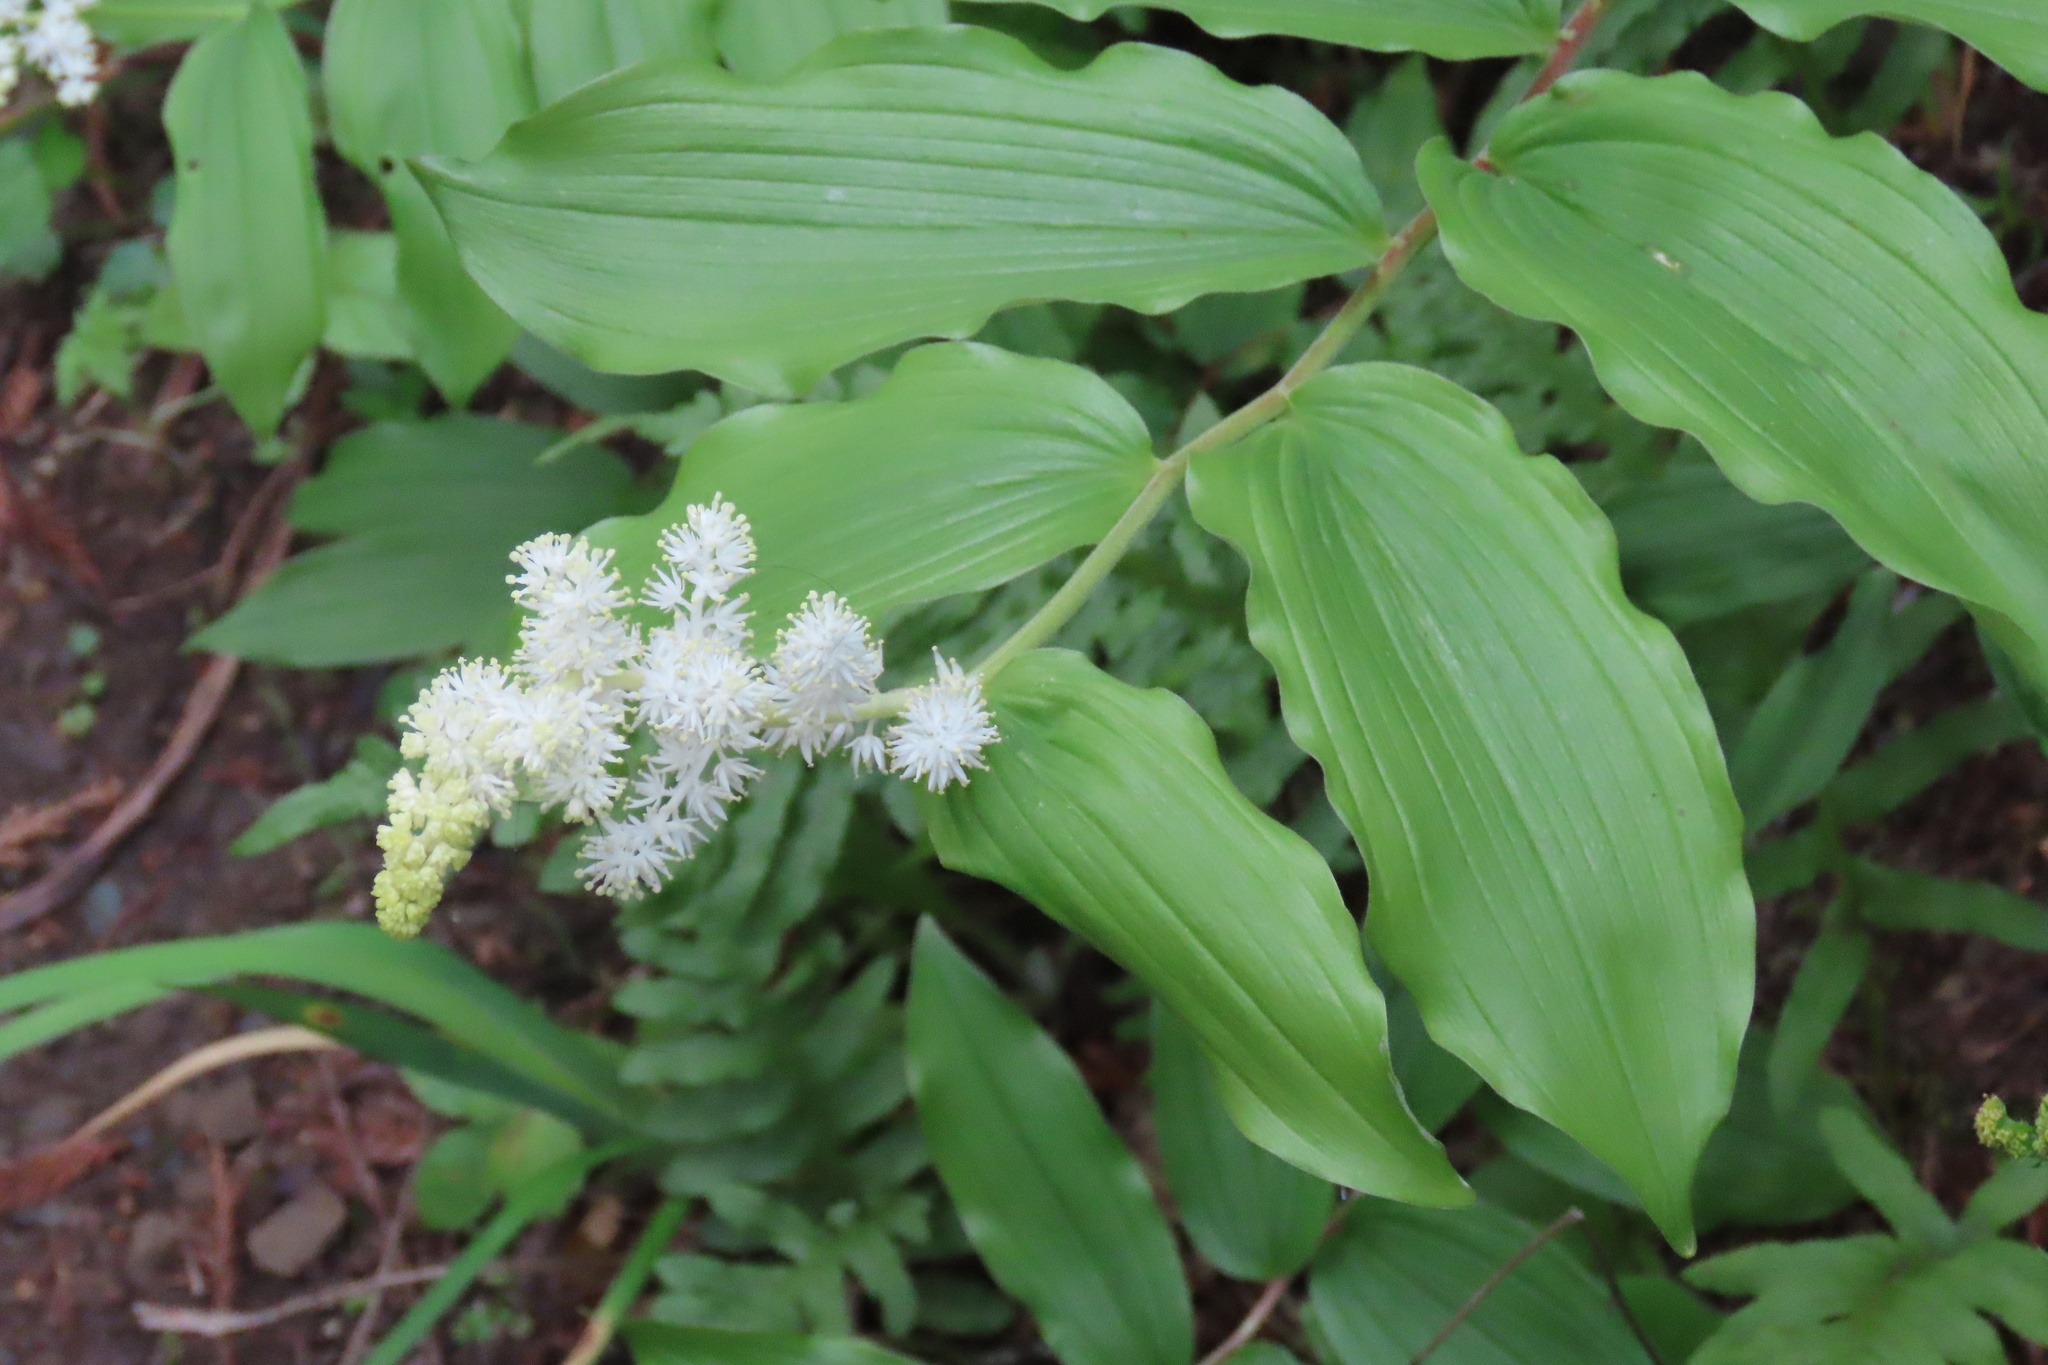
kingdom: Plantae
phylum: Tracheophyta
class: Liliopsida
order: Asparagales
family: Asparagaceae
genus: Maianthemum
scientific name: Maianthemum racemosum
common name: False spikenard
